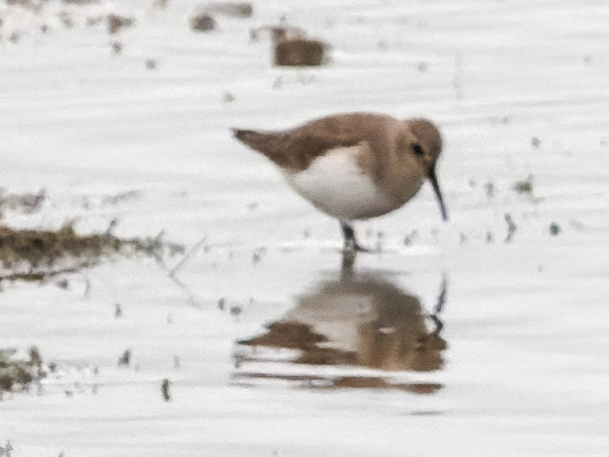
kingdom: Animalia
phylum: Chordata
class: Aves
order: Charadriiformes
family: Scolopacidae
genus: Calidris
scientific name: Calidris alpina
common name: Dunlin
